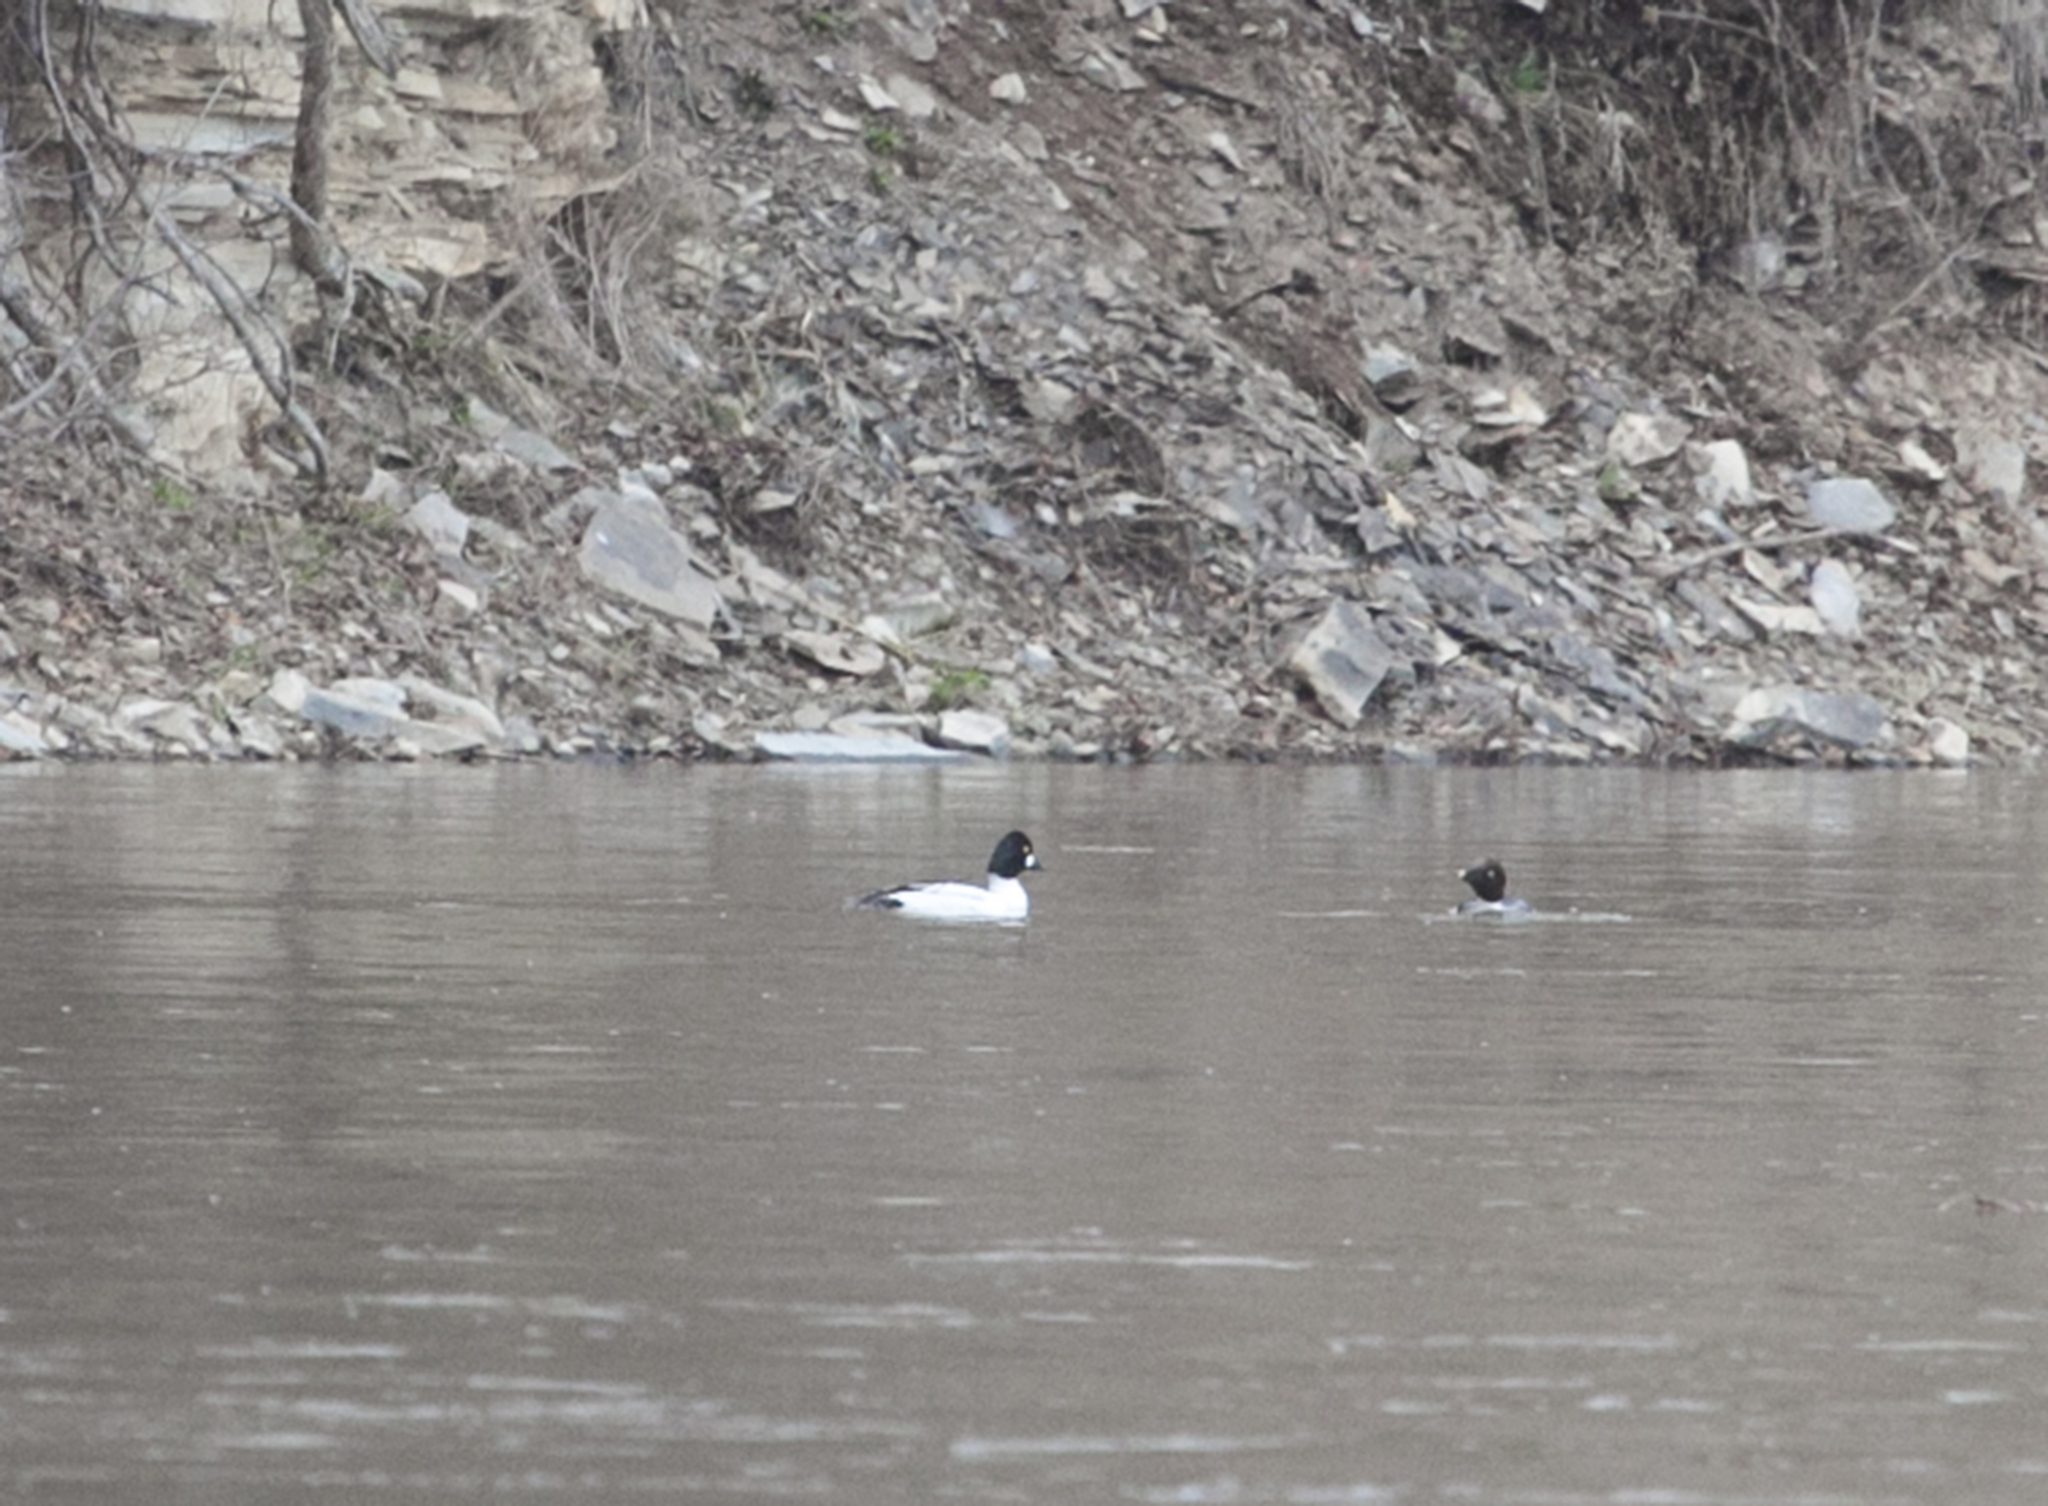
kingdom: Animalia
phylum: Chordata
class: Aves
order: Anseriformes
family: Anatidae
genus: Bucephala
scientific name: Bucephala clangula
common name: Common goldeneye
